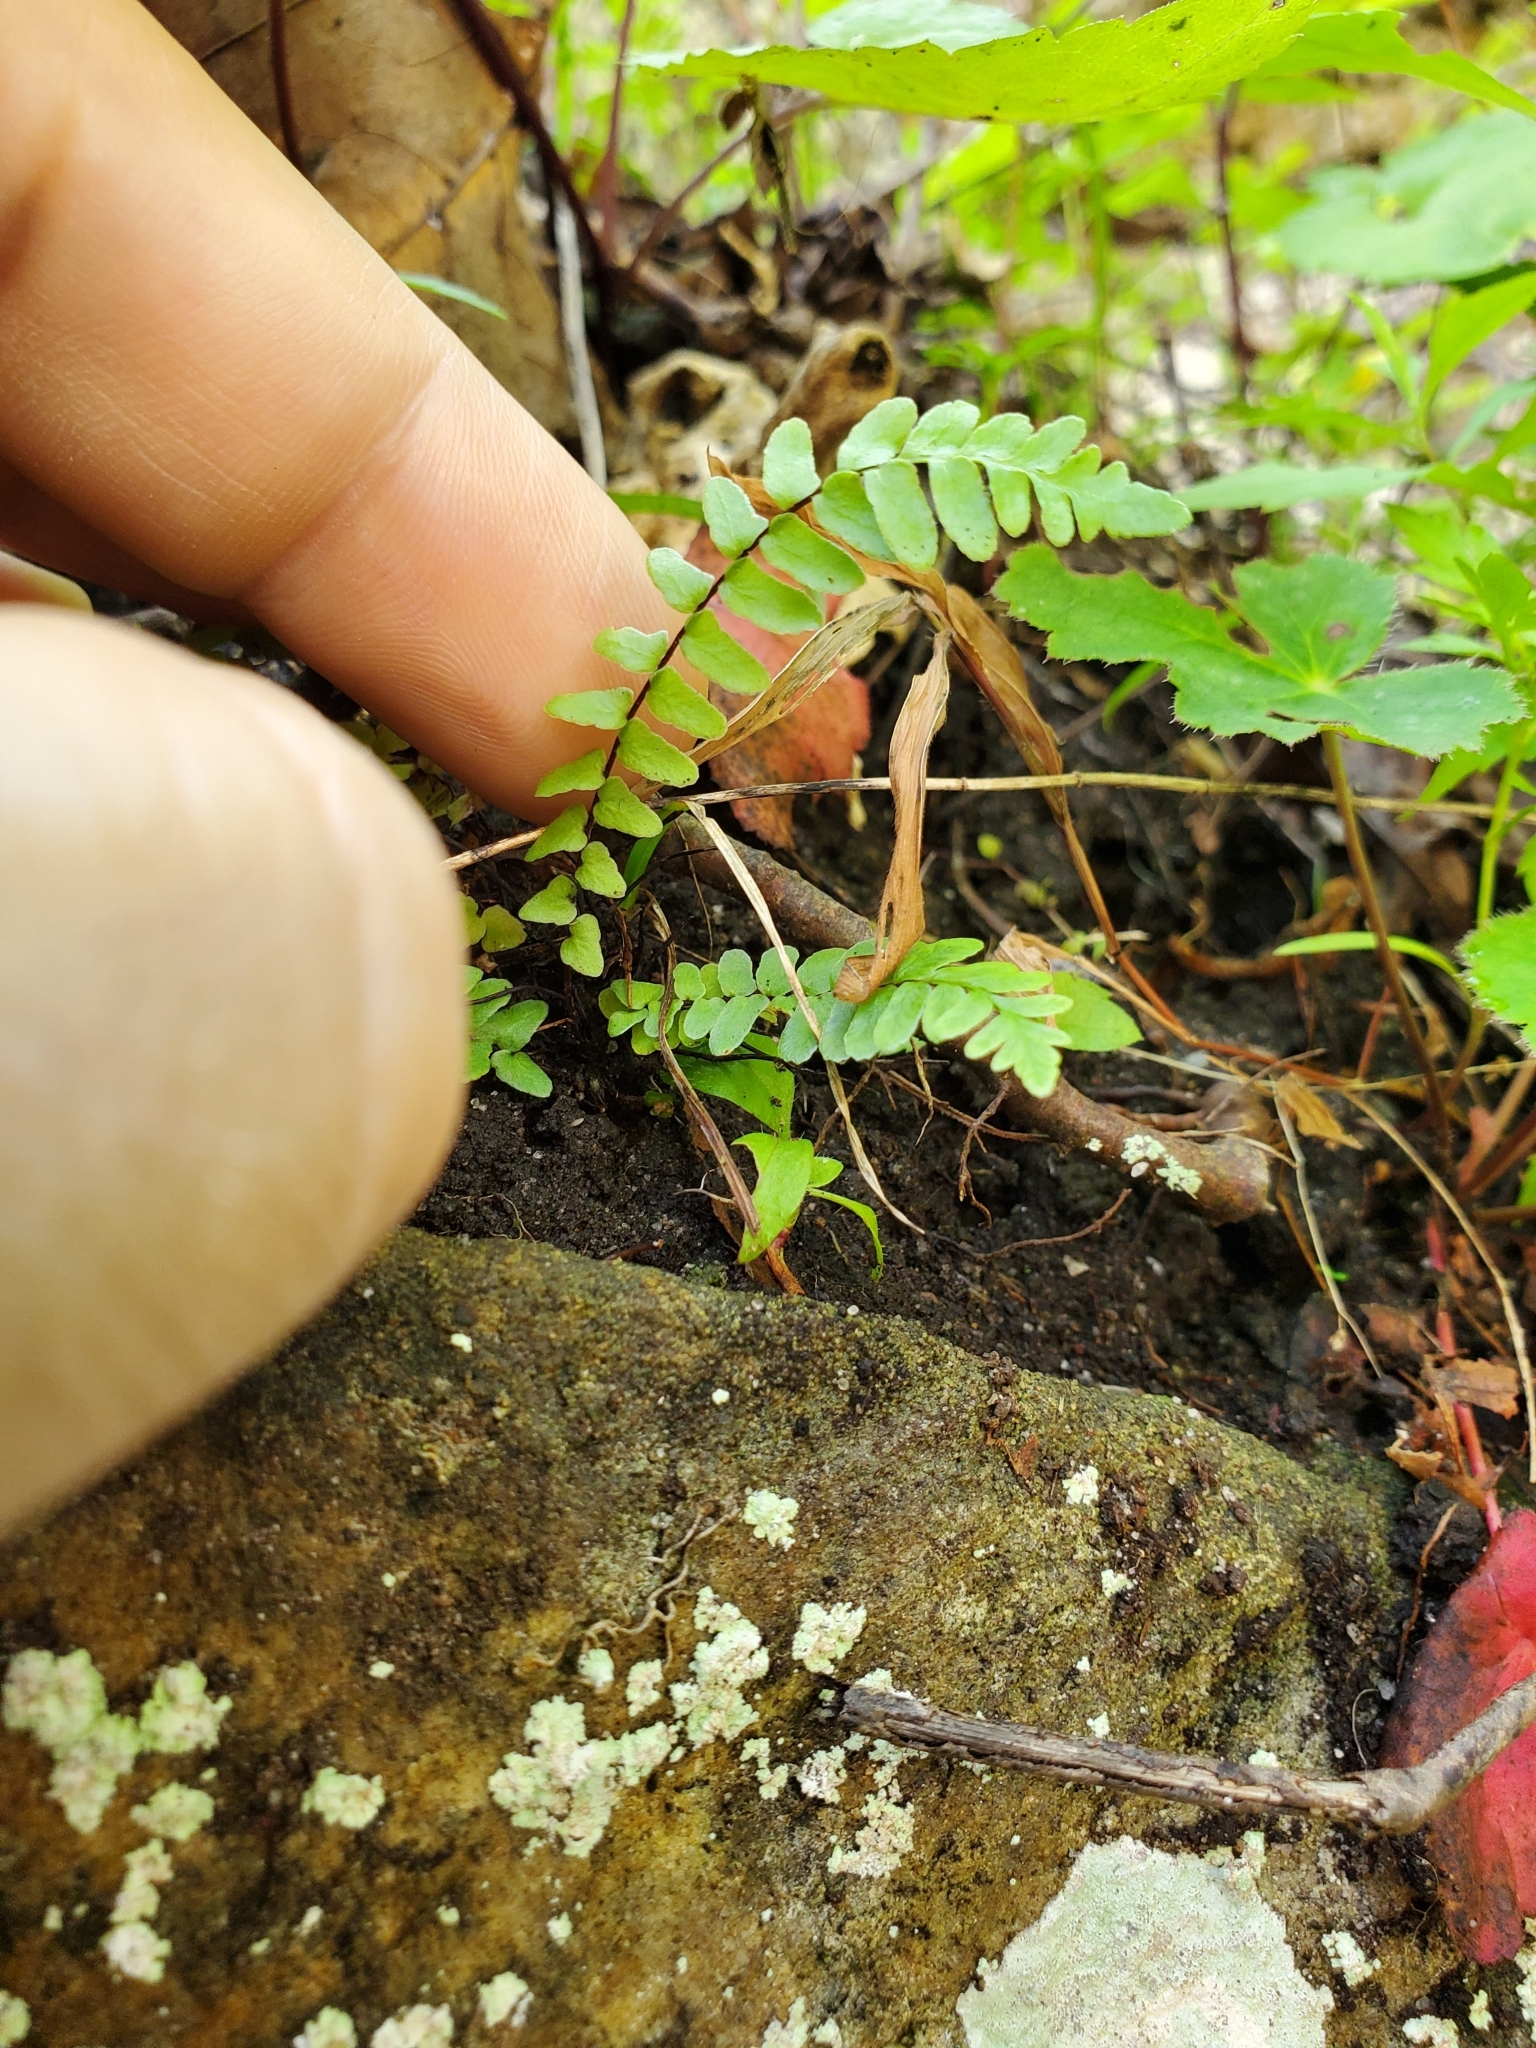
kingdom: Plantae
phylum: Tracheophyta
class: Polypodiopsida
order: Polypodiales
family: Aspleniaceae
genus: Asplenium
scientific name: Asplenium platyneuron
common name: Ebony spleenwort
